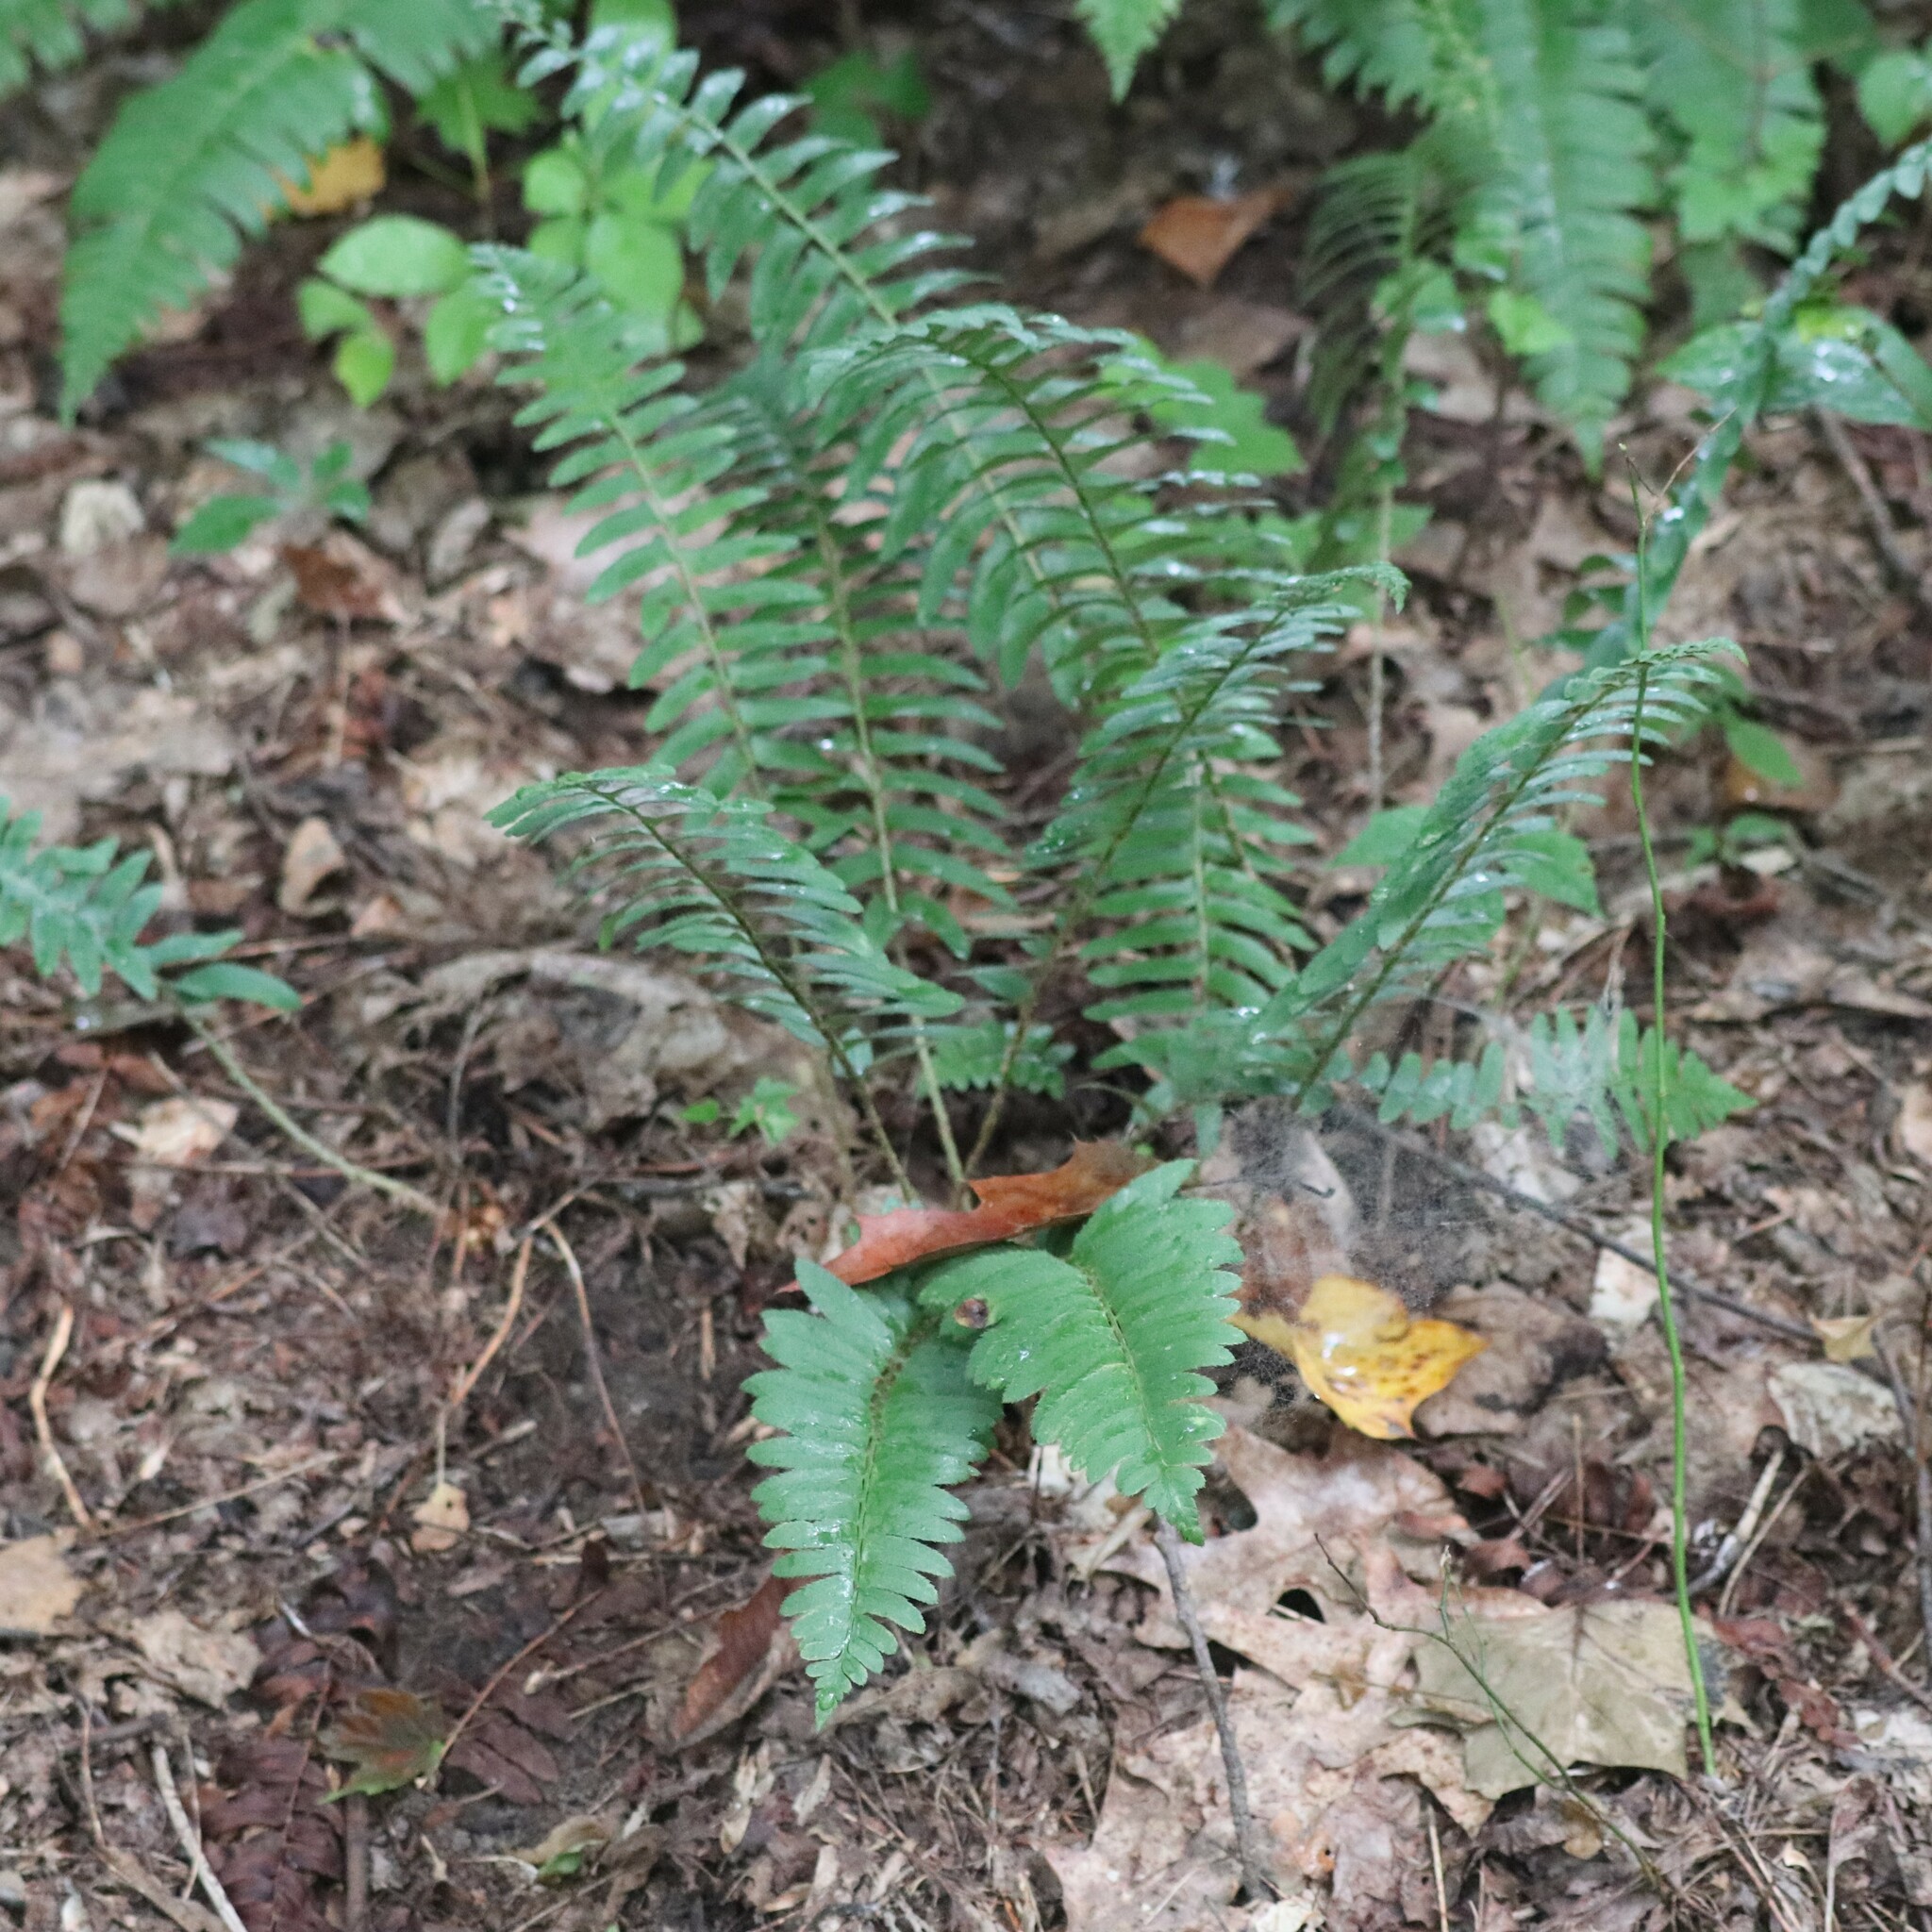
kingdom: Plantae
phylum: Tracheophyta
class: Polypodiopsida
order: Polypodiales
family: Dryopteridaceae
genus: Polystichum
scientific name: Polystichum acrostichoides
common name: Christmas fern
